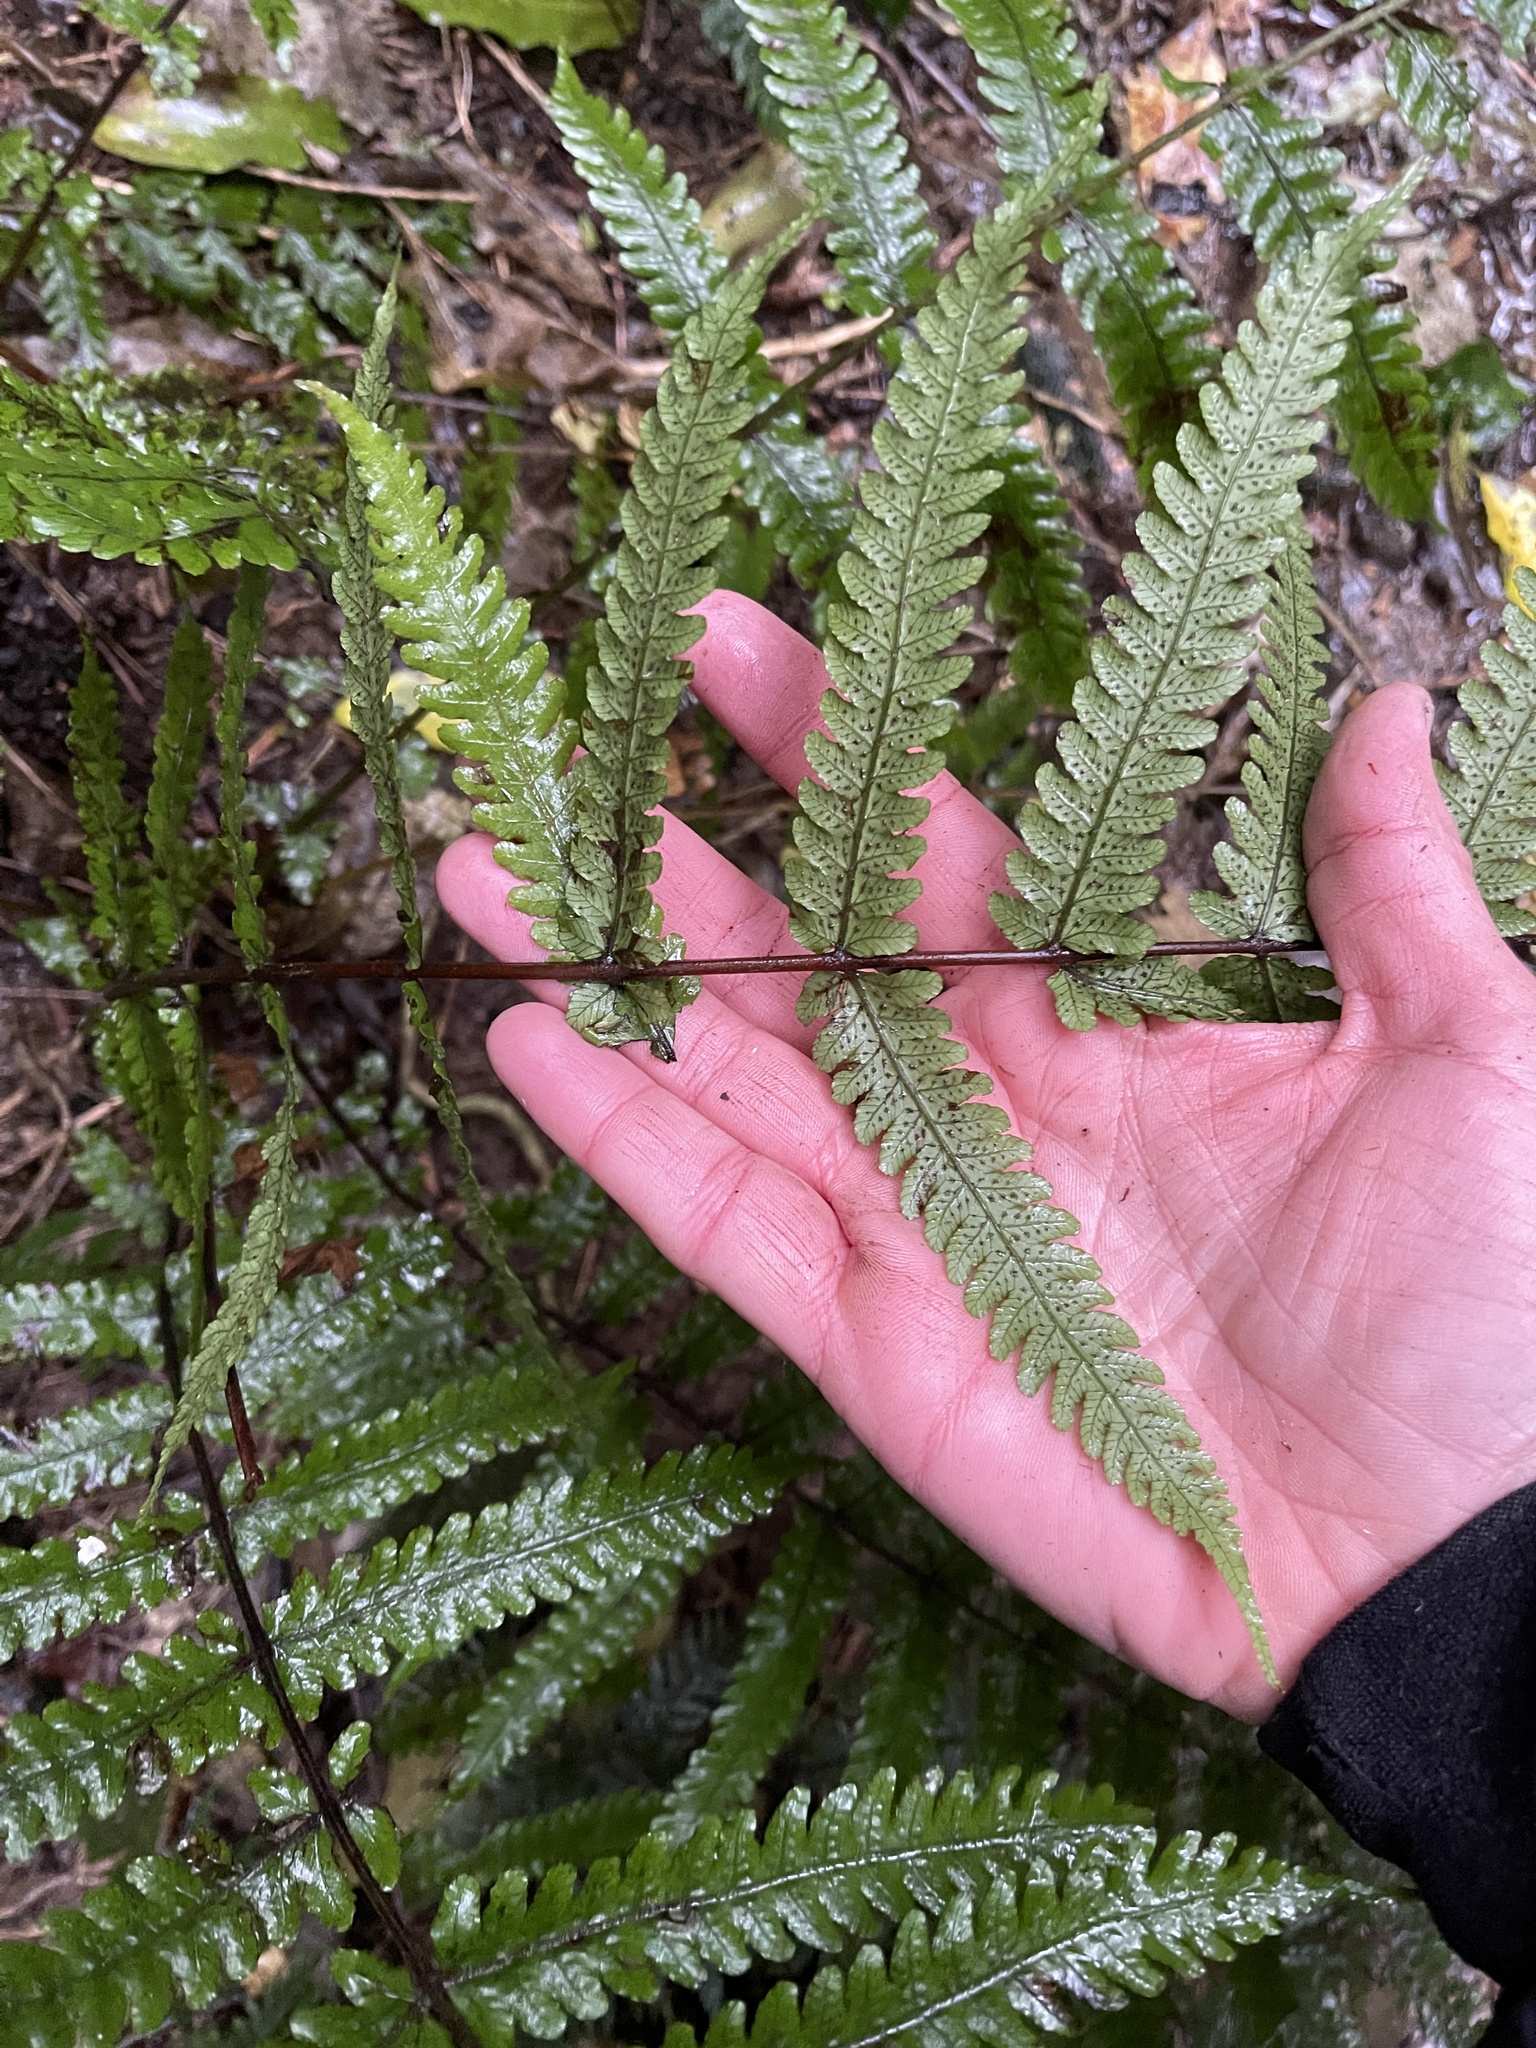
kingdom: Plantae
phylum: Tracheophyta
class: Polypodiopsida
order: Polypodiales
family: Thelypteridaceae
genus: Pakau
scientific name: Pakau pennigera
